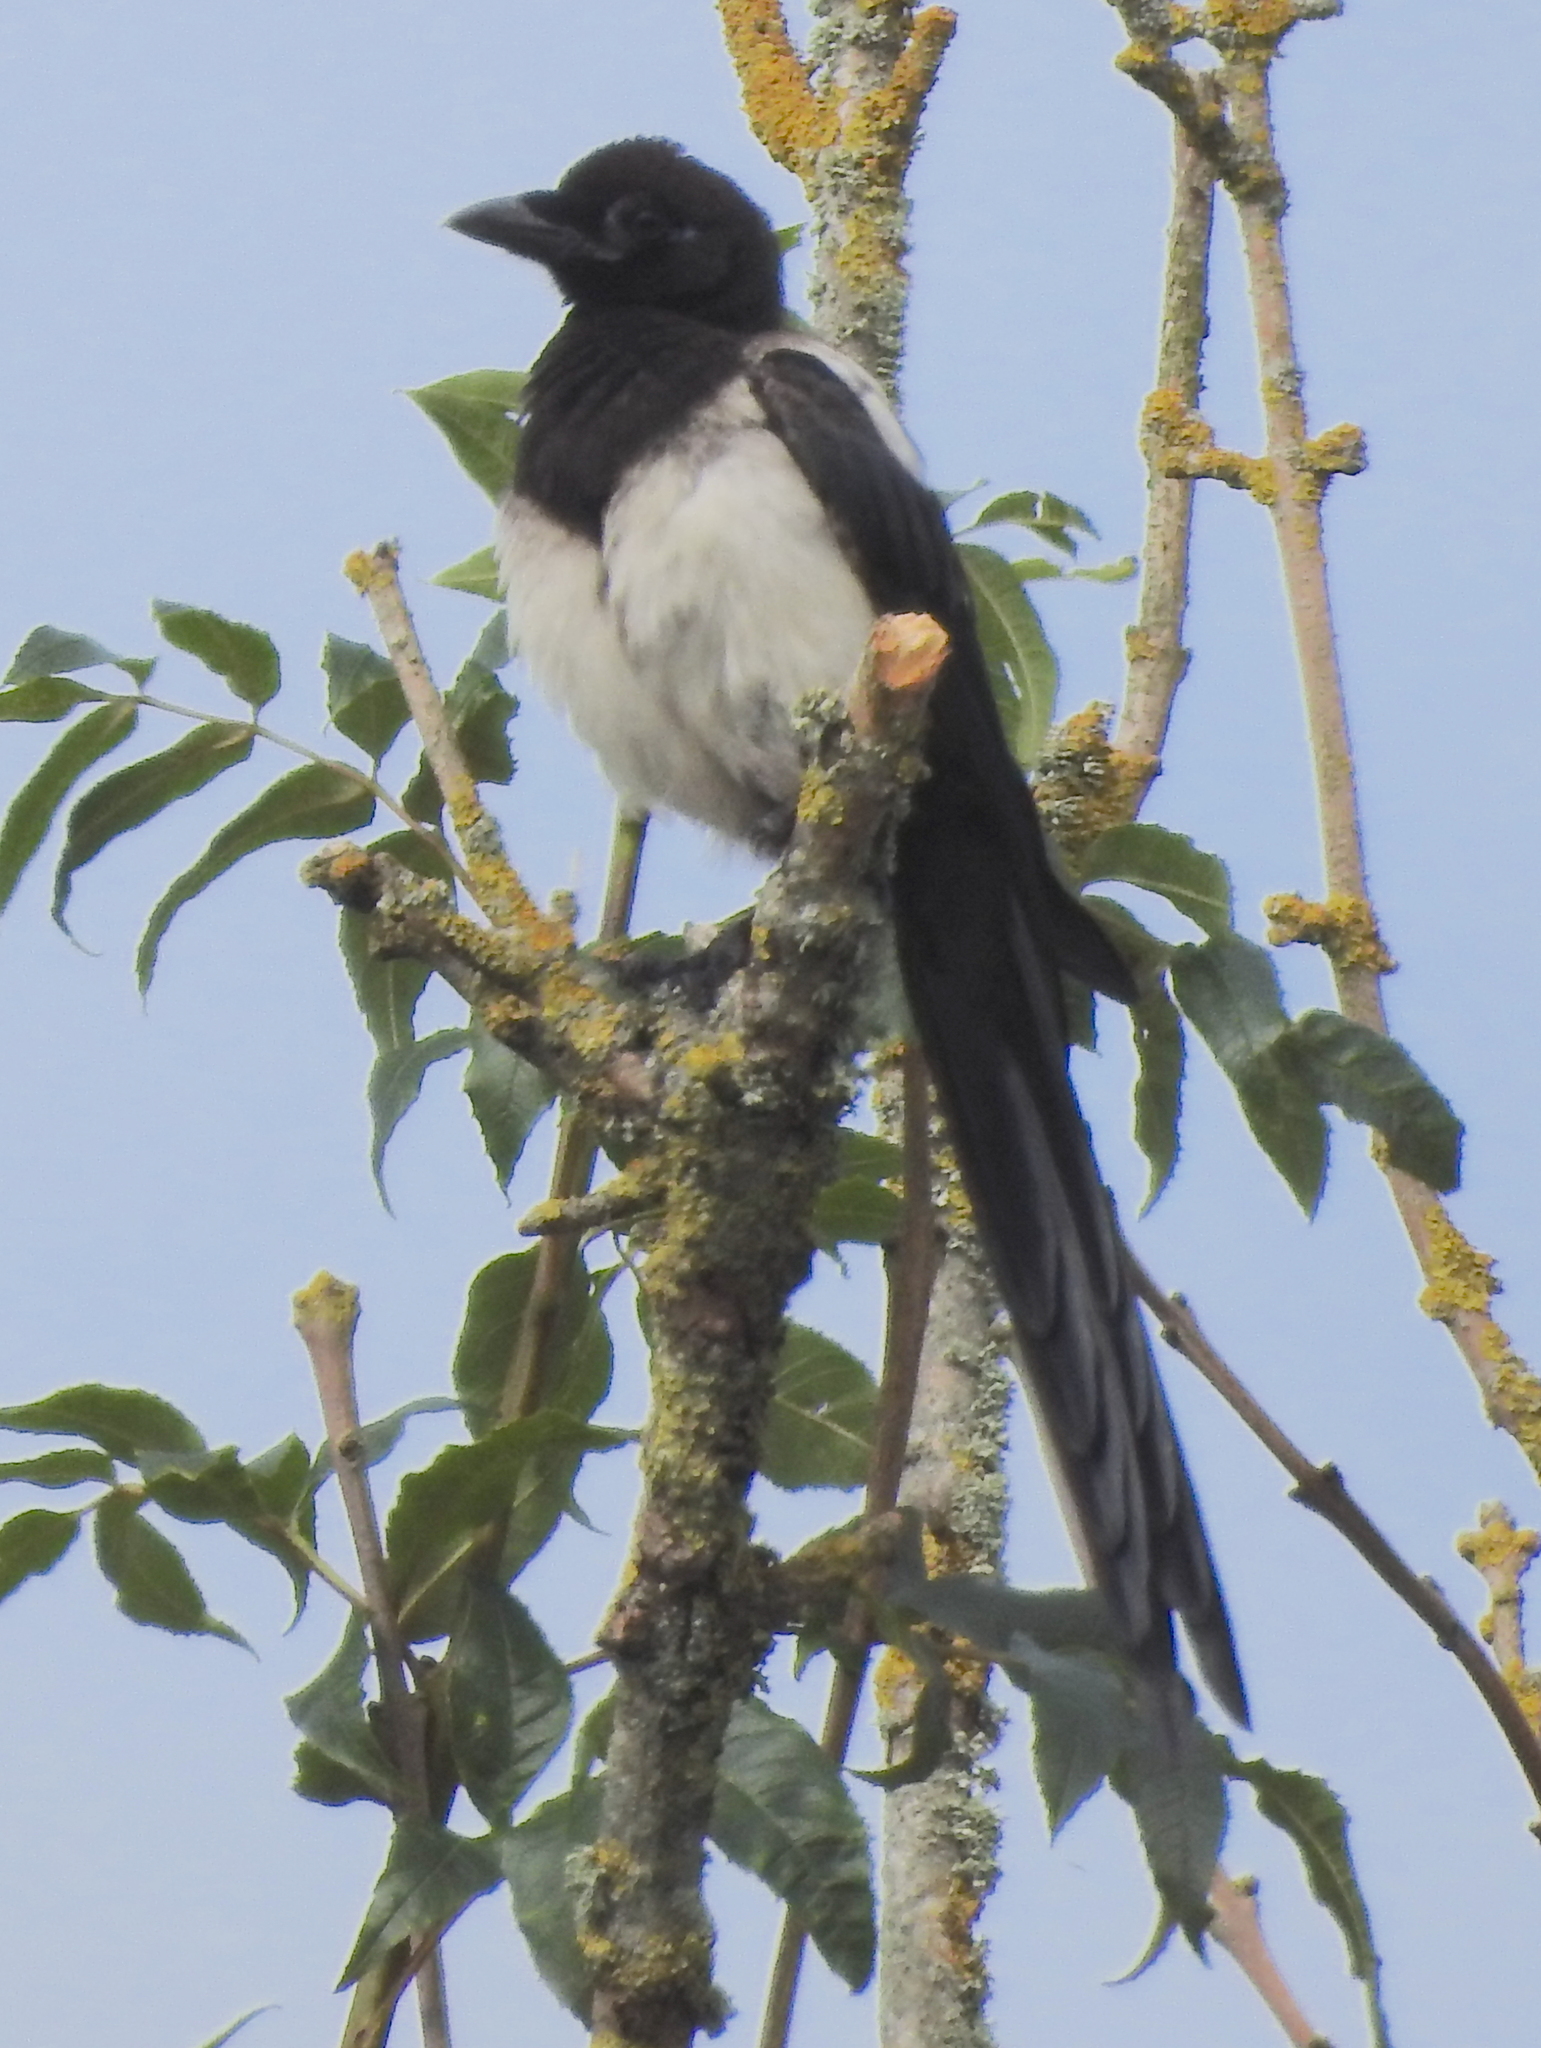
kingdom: Animalia
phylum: Chordata
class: Aves
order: Passeriformes
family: Corvidae
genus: Pica
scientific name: Pica pica
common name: Eurasian magpie
